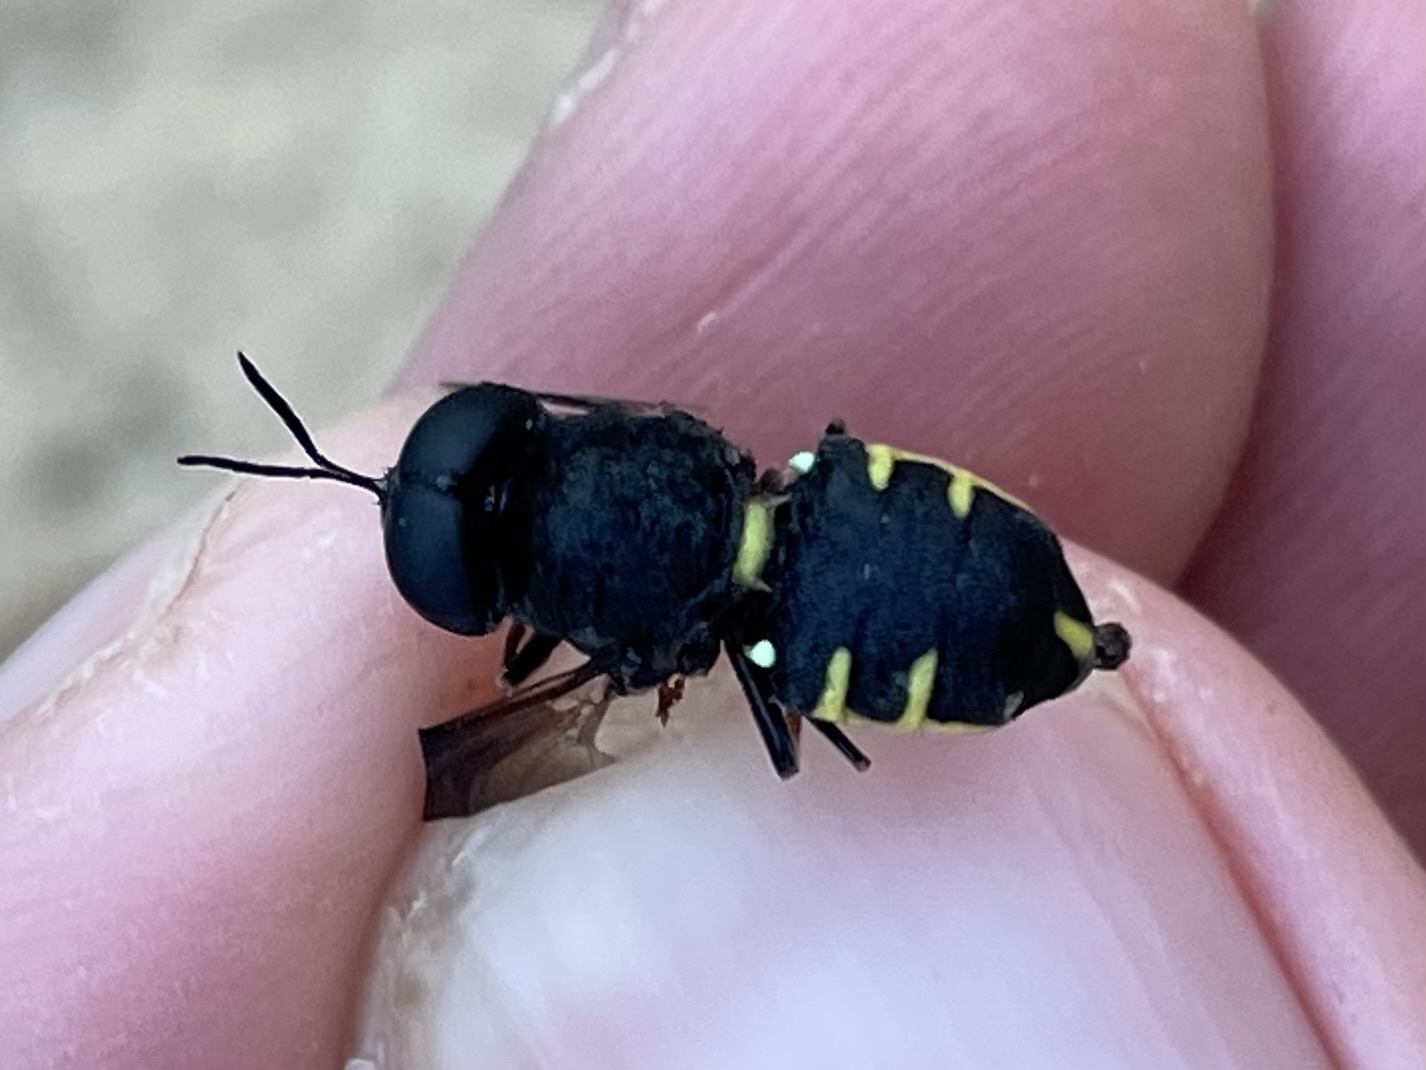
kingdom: Animalia
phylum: Arthropoda
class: Insecta
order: Diptera
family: Stratiomyidae
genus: Stratiomys
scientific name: Stratiomys hulli
